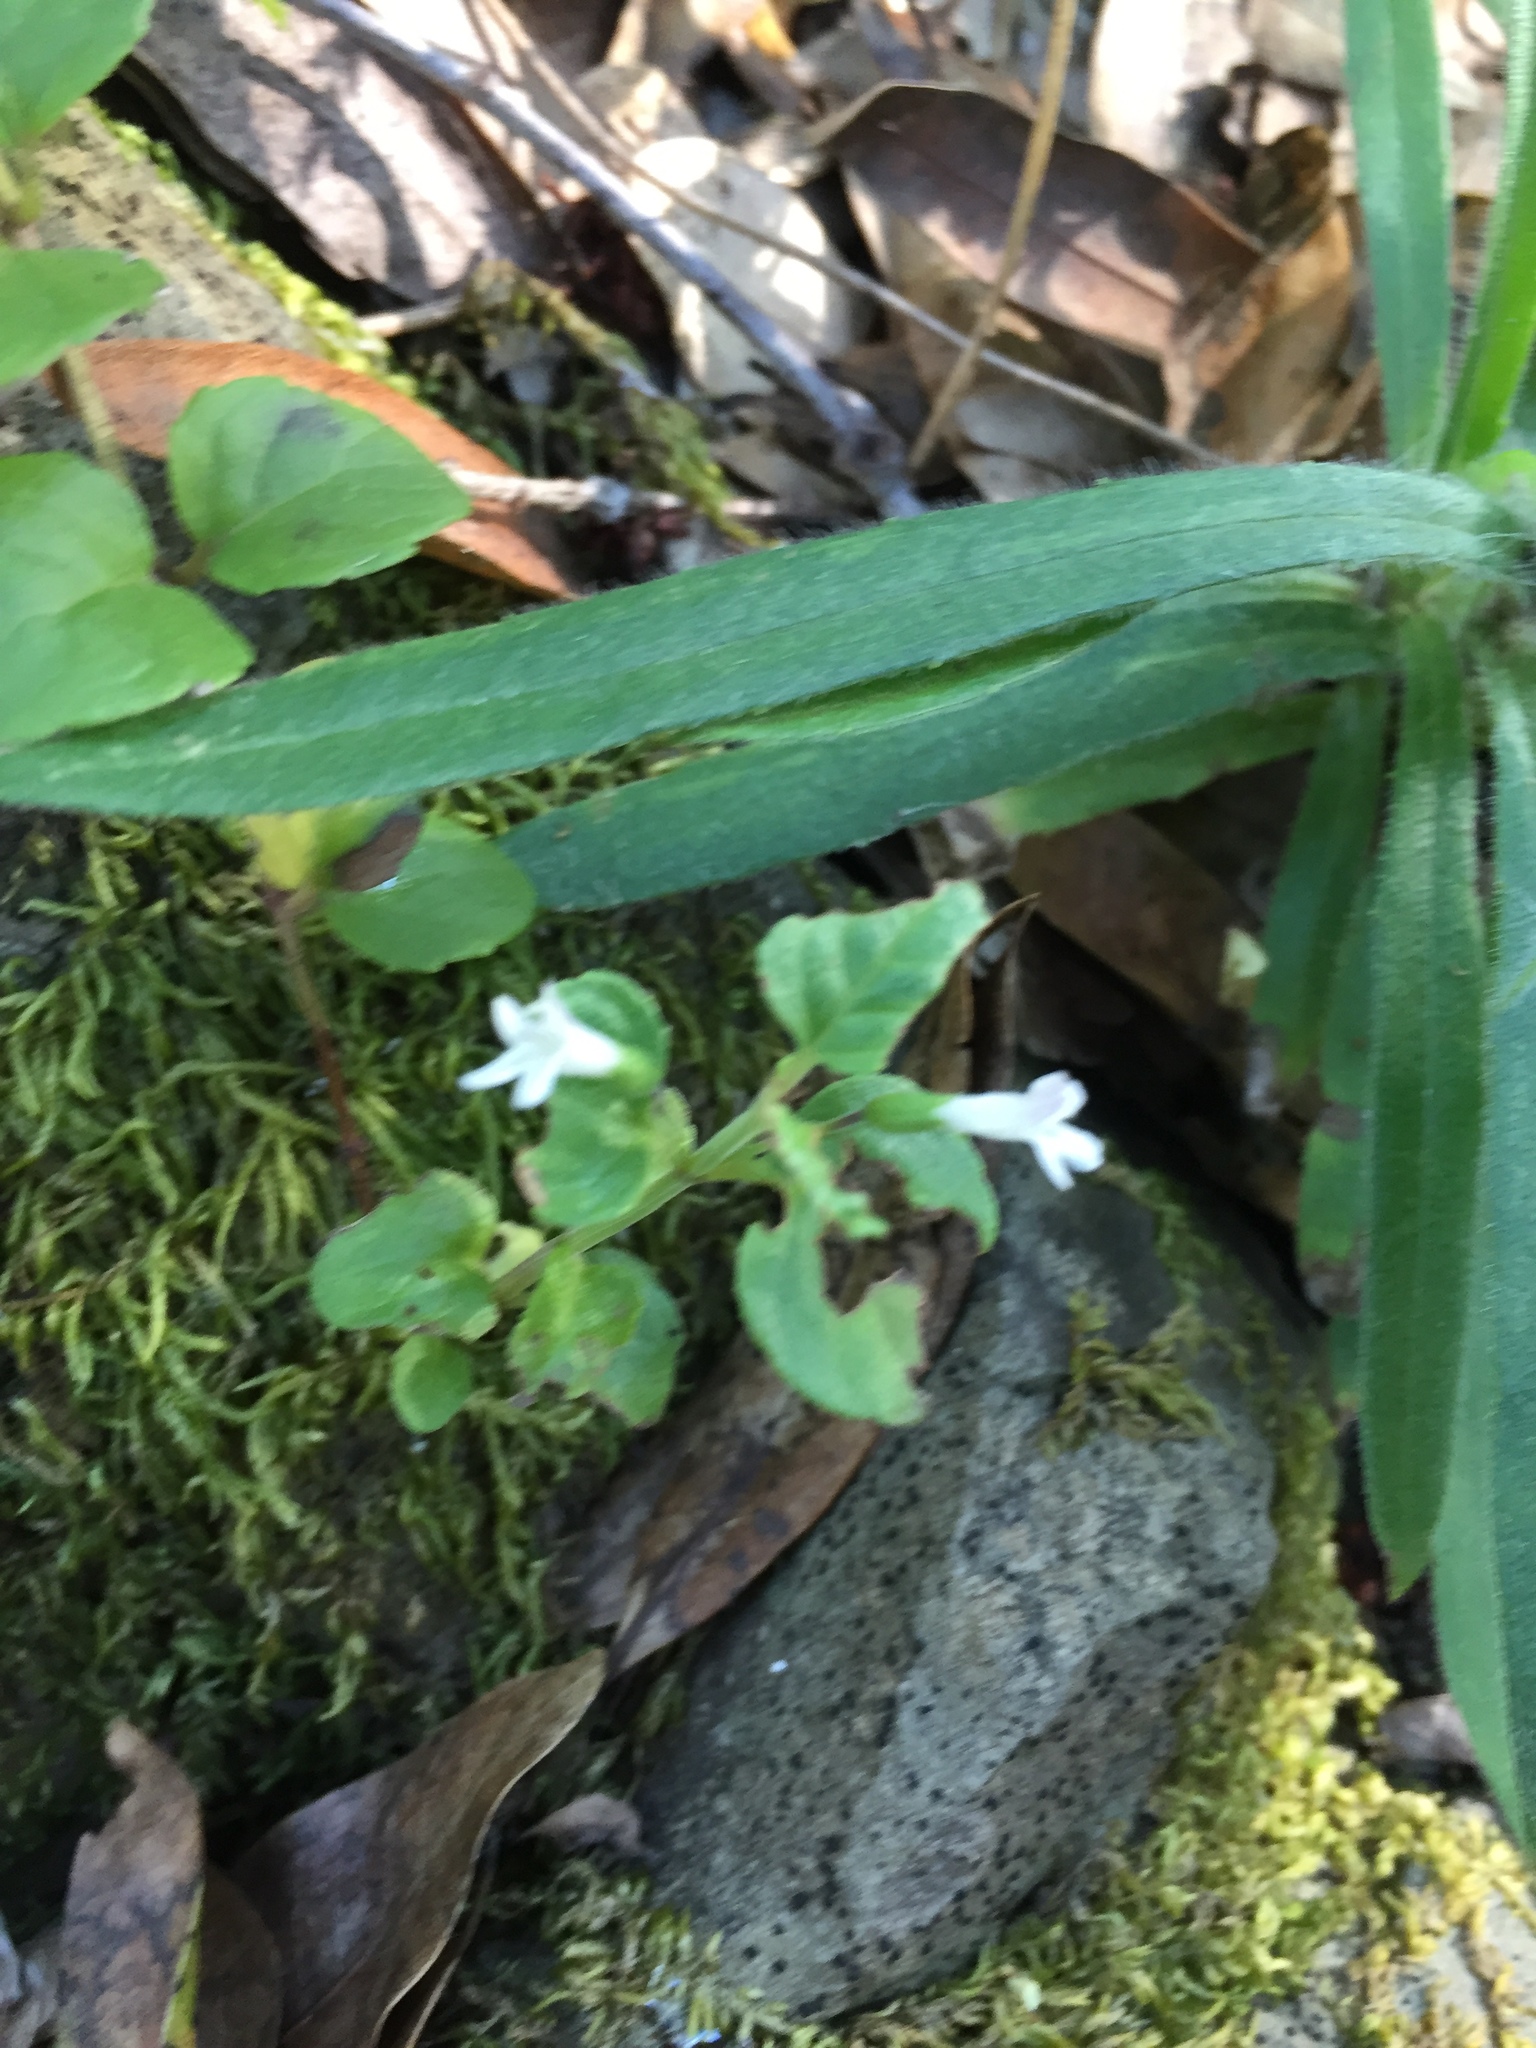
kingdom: Plantae
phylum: Tracheophyta
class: Magnoliopsida
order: Lamiales
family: Lamiaceae
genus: Micromeria
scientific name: Micromeria douglasii
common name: Yerba buena
